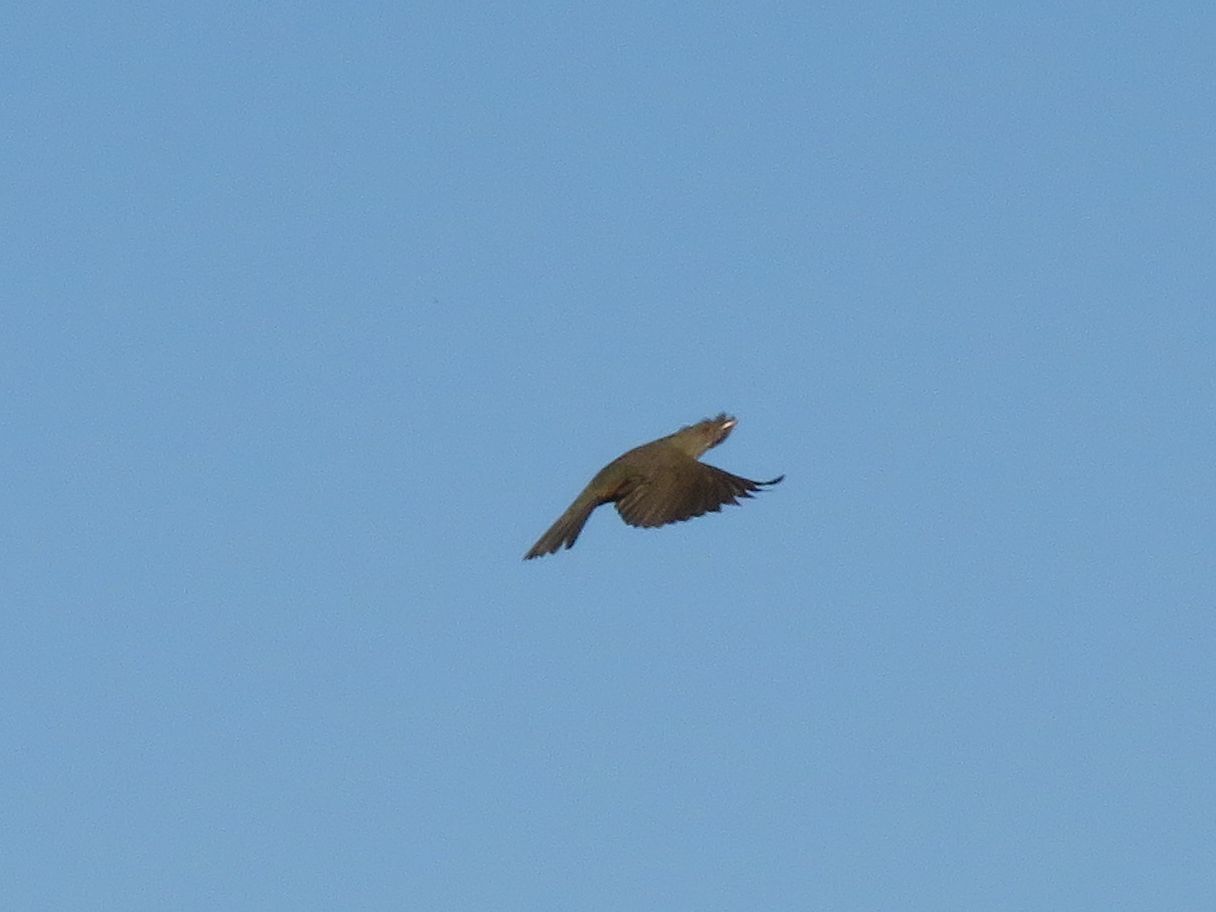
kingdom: Animalia
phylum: Chordata
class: Aves
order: Passeriformes
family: Icteridae
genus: Molothrus
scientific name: Molothrus bonariensis
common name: Shiny cowbird
